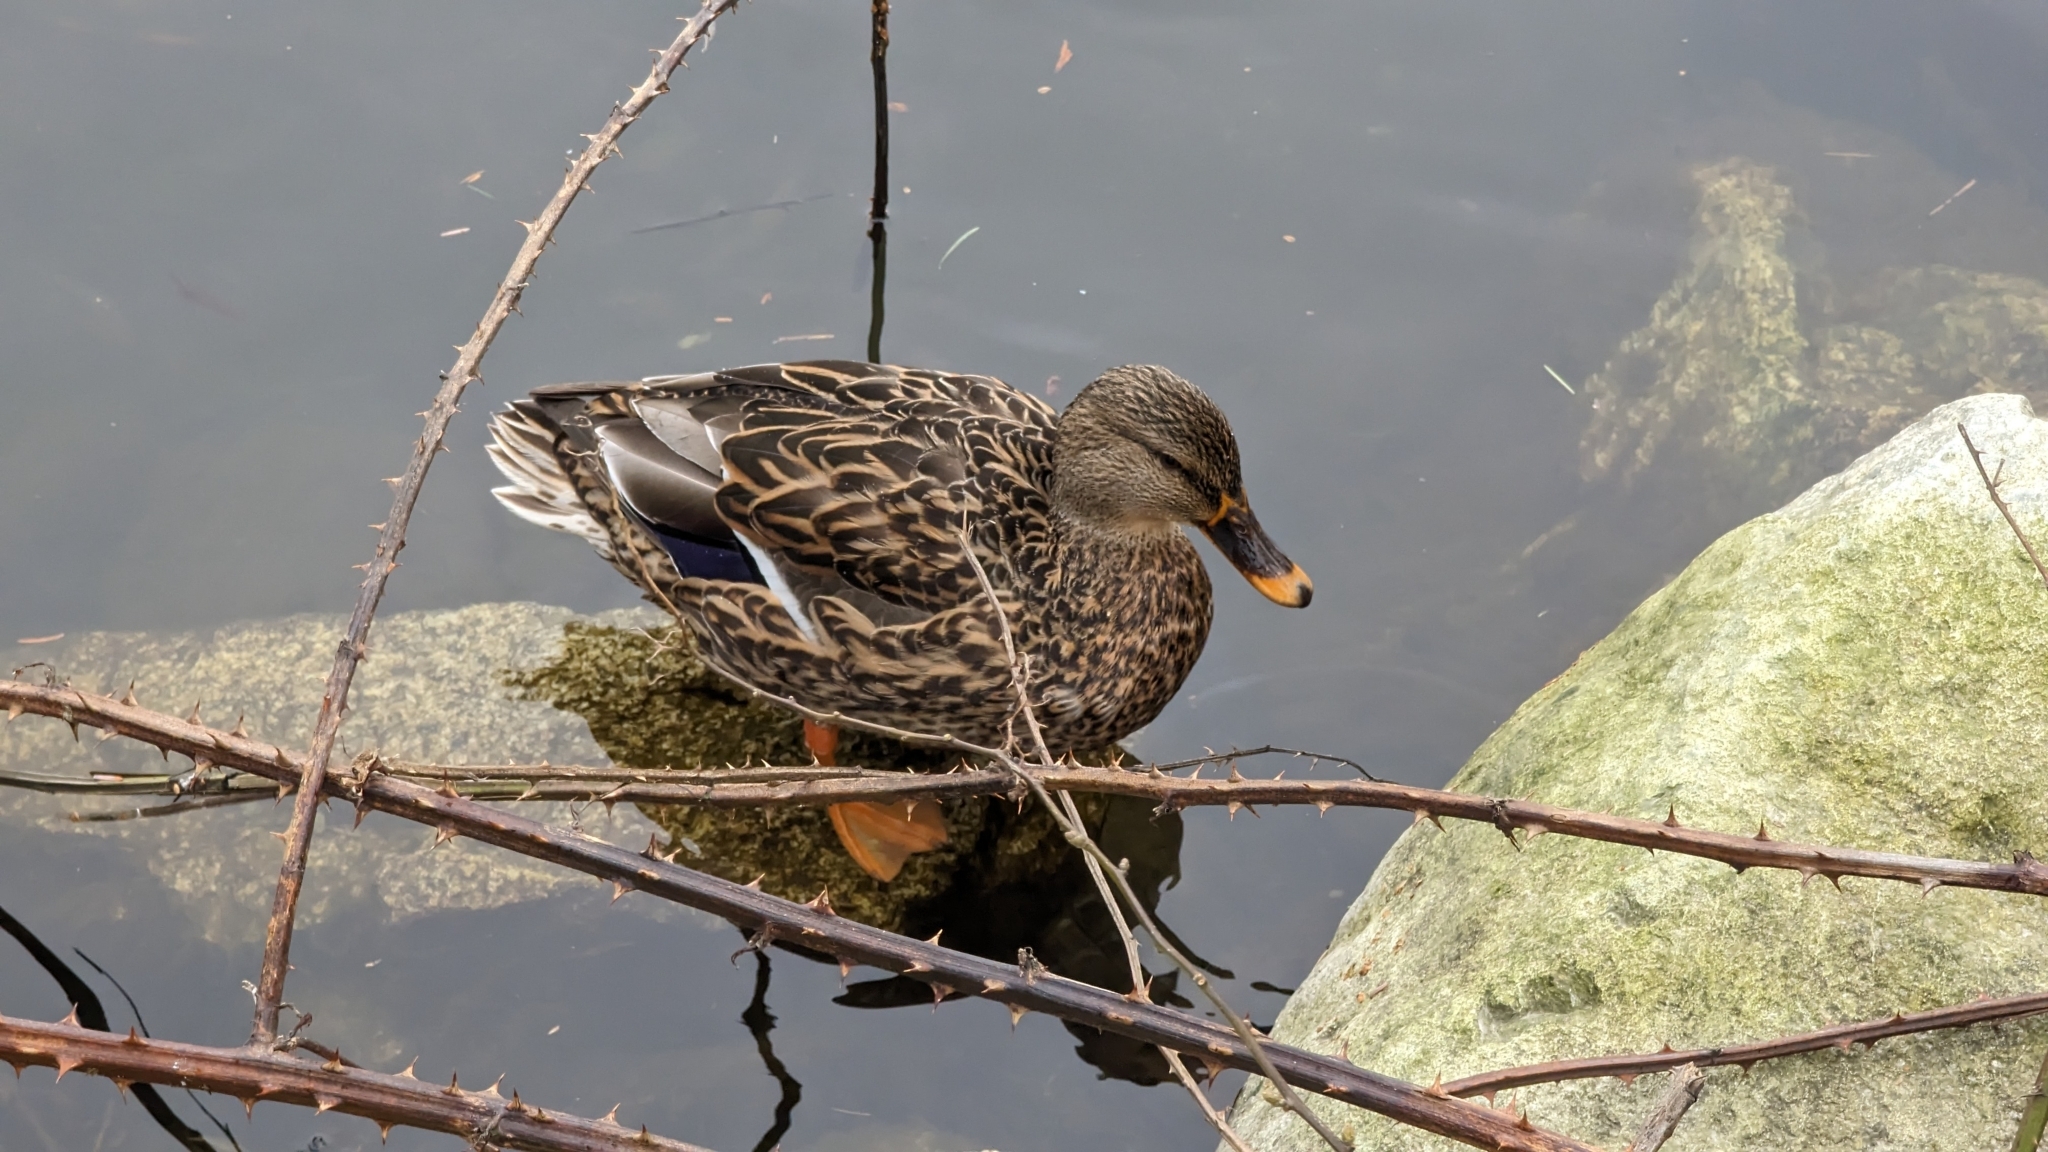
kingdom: Animalia
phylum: Chordata
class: Aves
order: Anseriformes
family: Anatidae
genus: Anas
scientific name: Anas platyrhynchos
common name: Mallard
